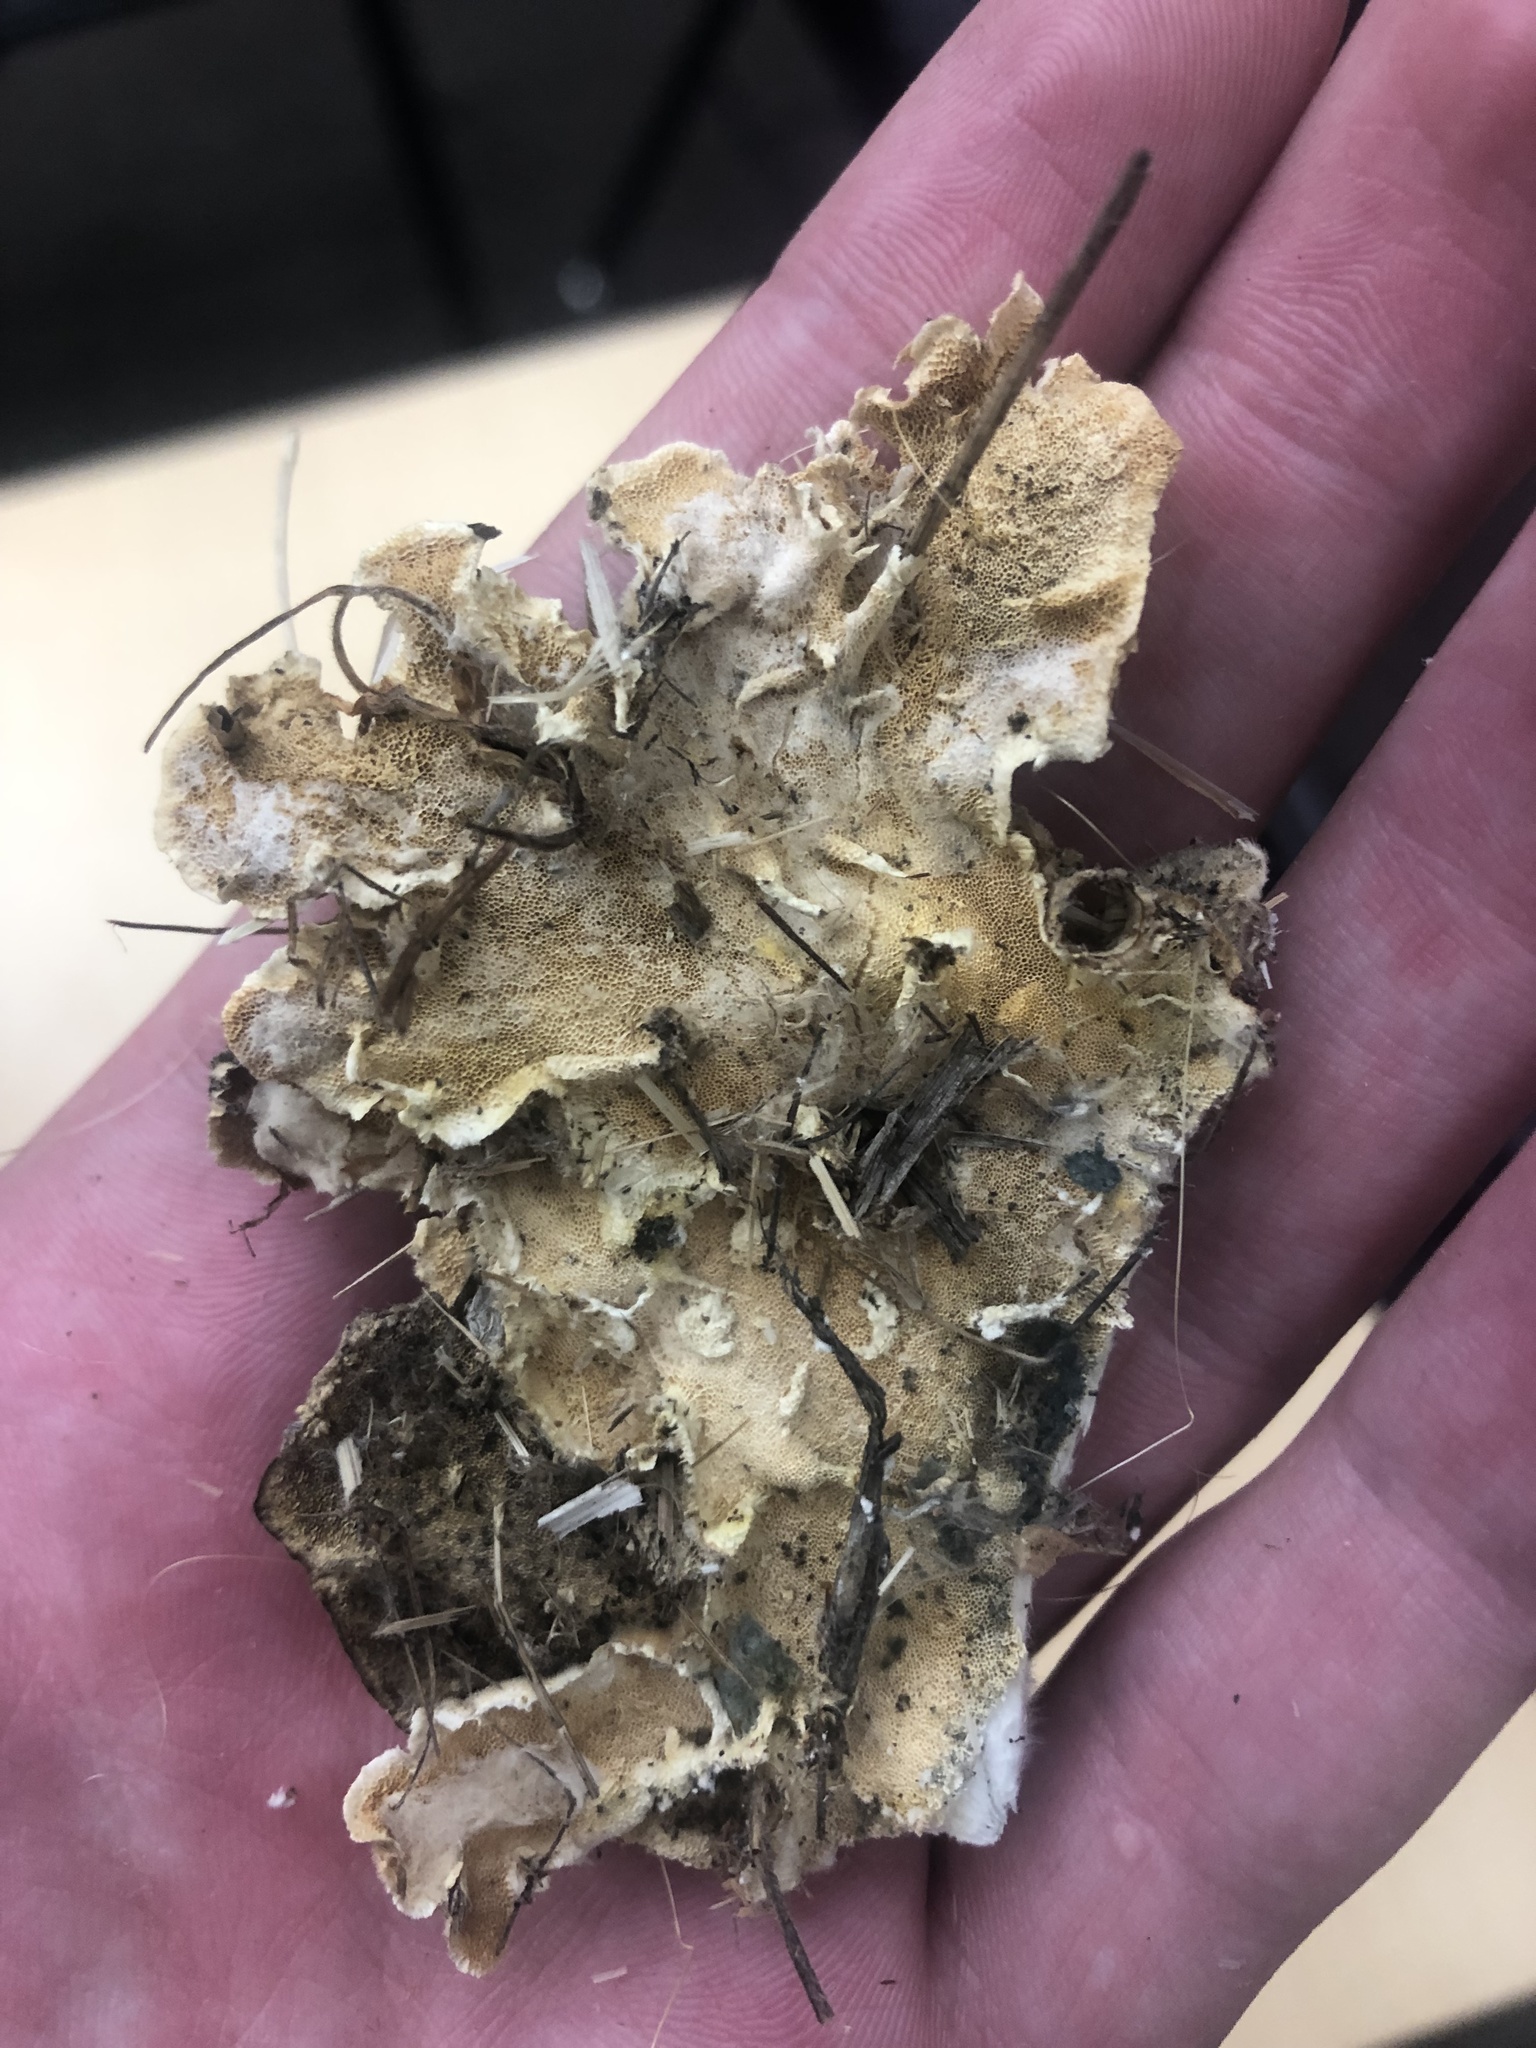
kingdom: Fungi
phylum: Basidiomycota
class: Agaricomycetes
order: Polyporales
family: Polyporaceae
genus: Trametes
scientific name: Trametes versicolor
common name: Turkeytail
